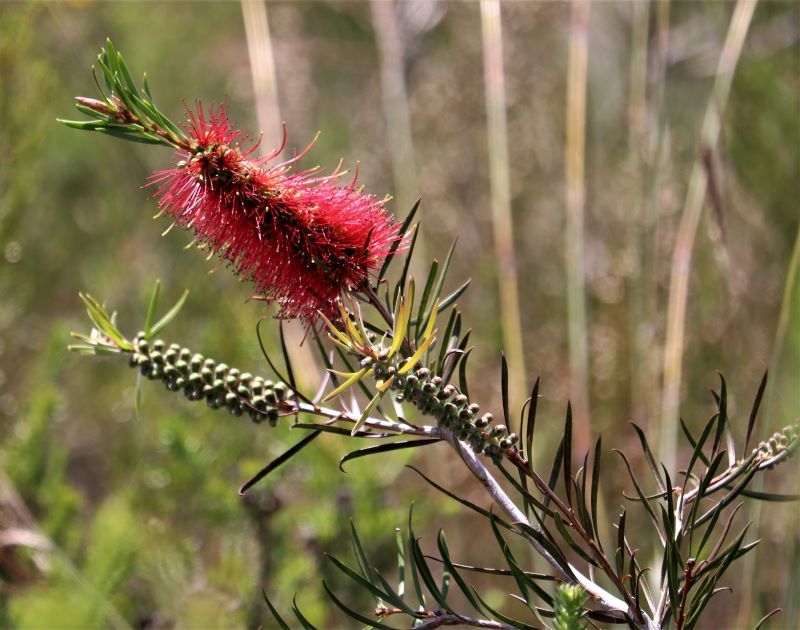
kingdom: Plantae
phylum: Tracheophyta
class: Magnoliopsida
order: Myrtales
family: Myrtaceae
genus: Callistemon
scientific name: Callistemon linearis
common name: Narrow-leaf bottlebrush
